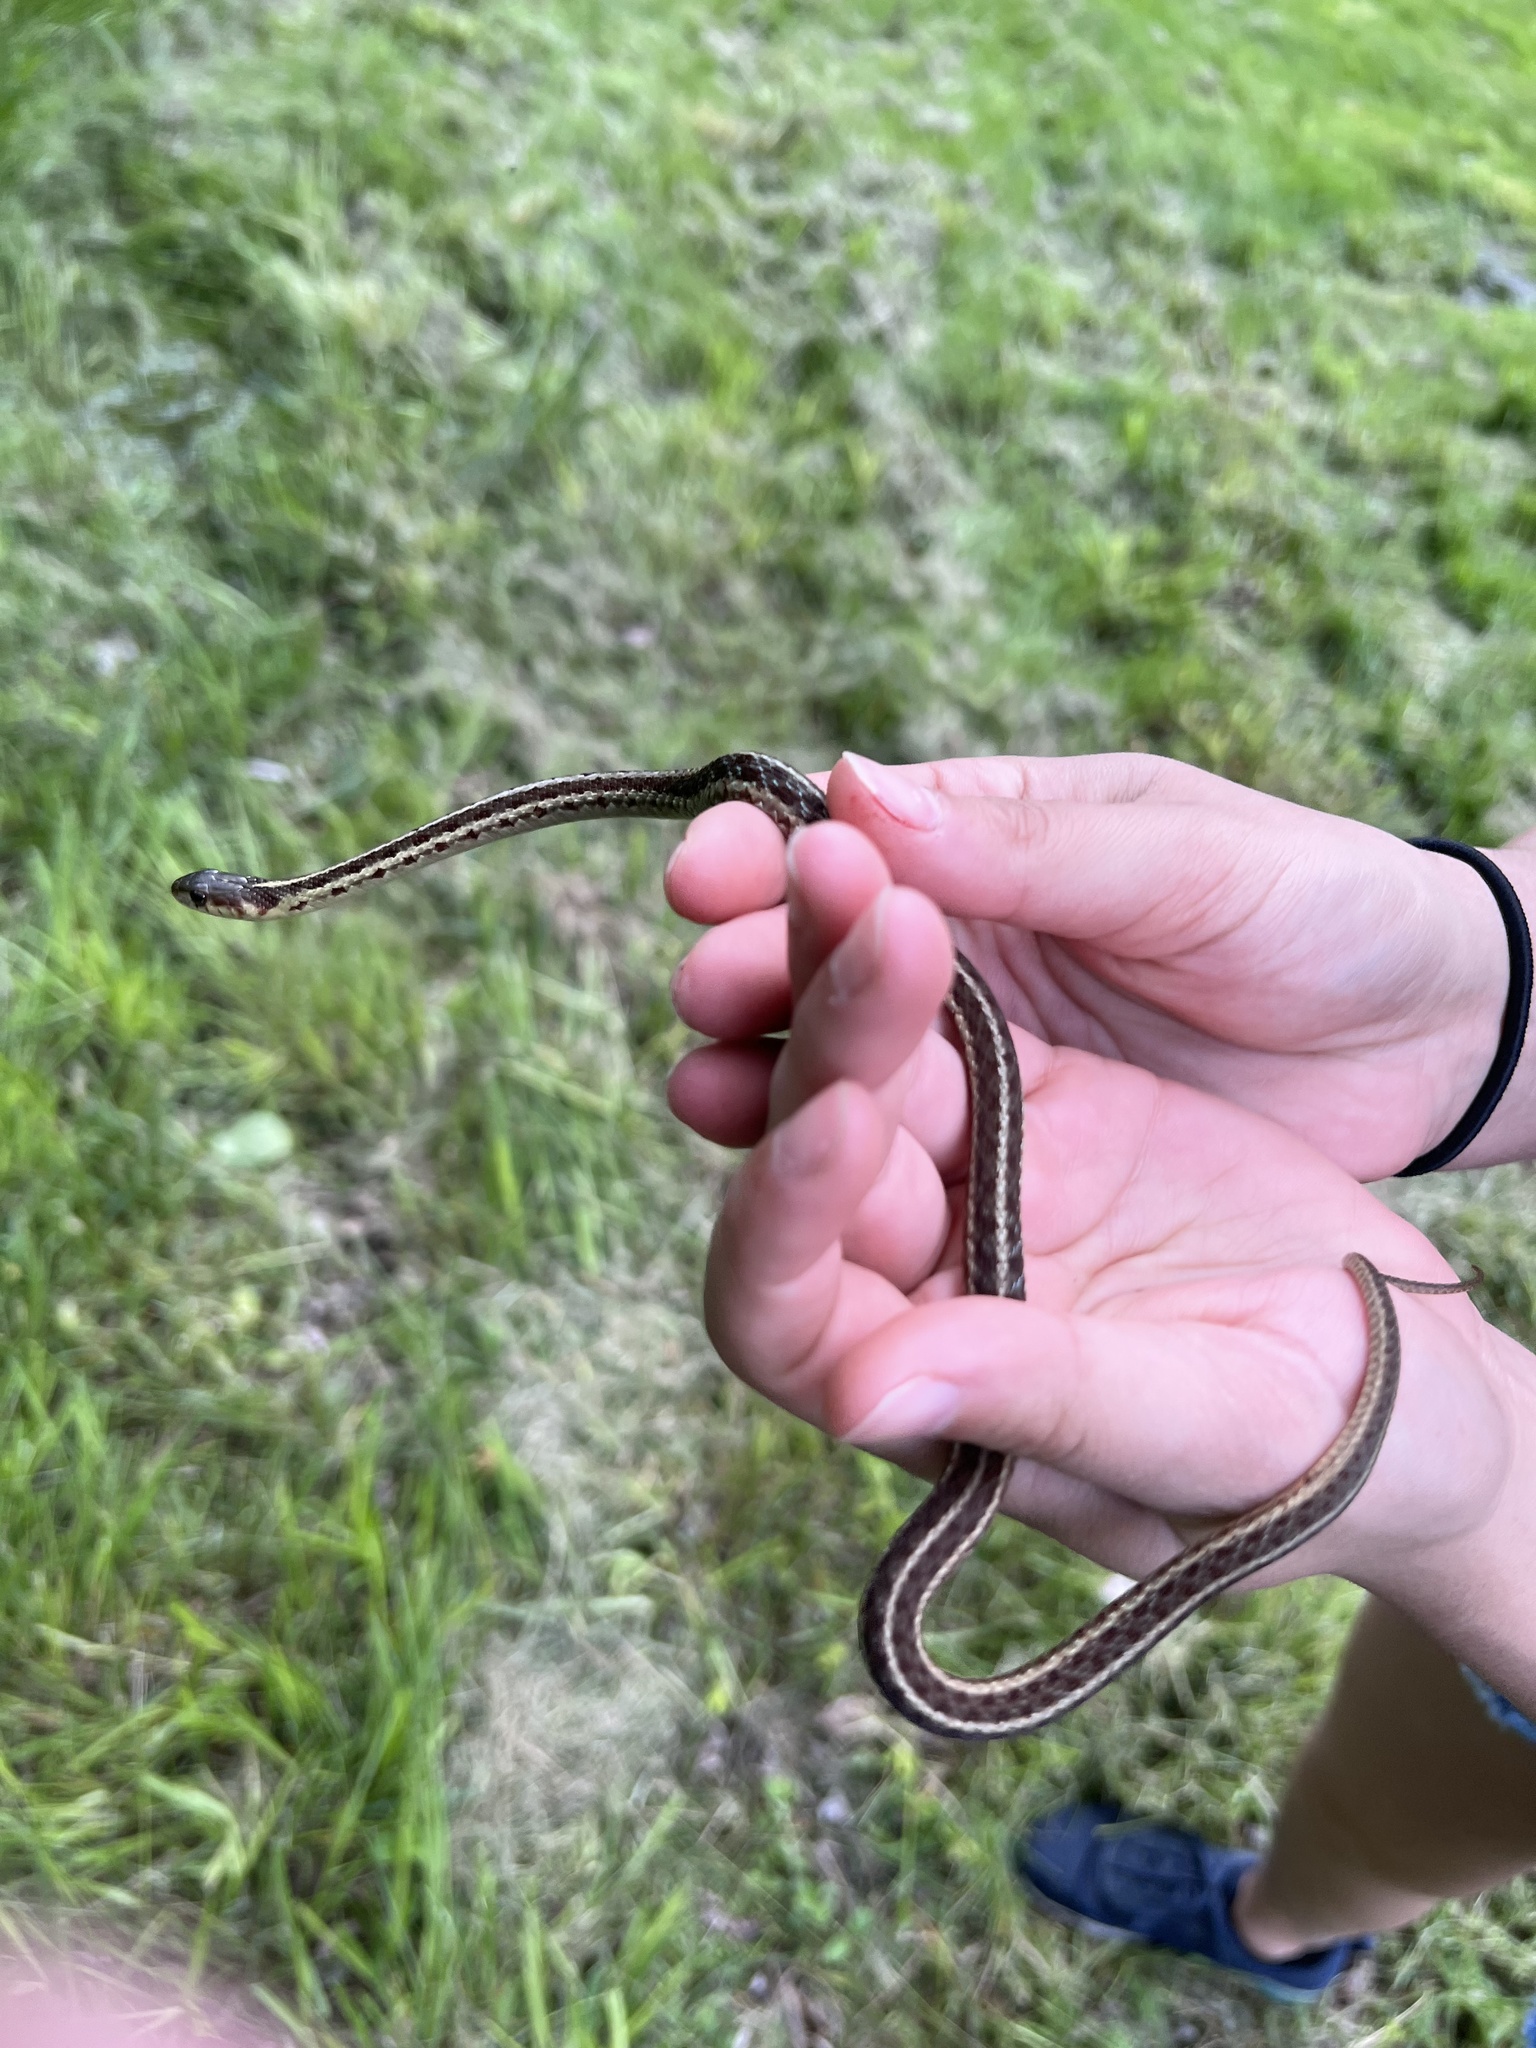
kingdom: Animalia
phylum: Chordata
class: Squamata
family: Colubridae
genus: Thamnophis
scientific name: Thamnophis sirtalis
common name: Common garter snake
